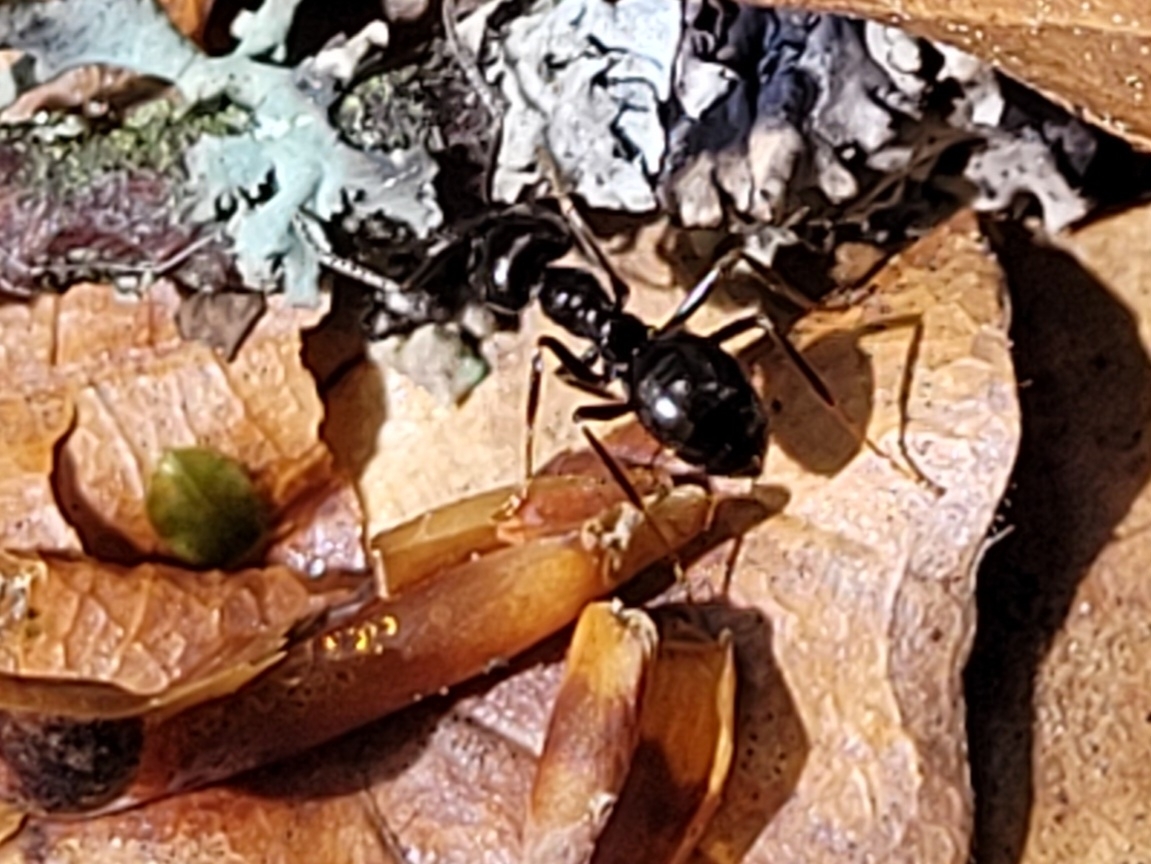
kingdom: Animalia
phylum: Arthropoda
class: Insecta
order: Hymenoptera
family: Formicidae
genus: Lasius
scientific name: Lasius fuliginosus
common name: Jet ant
